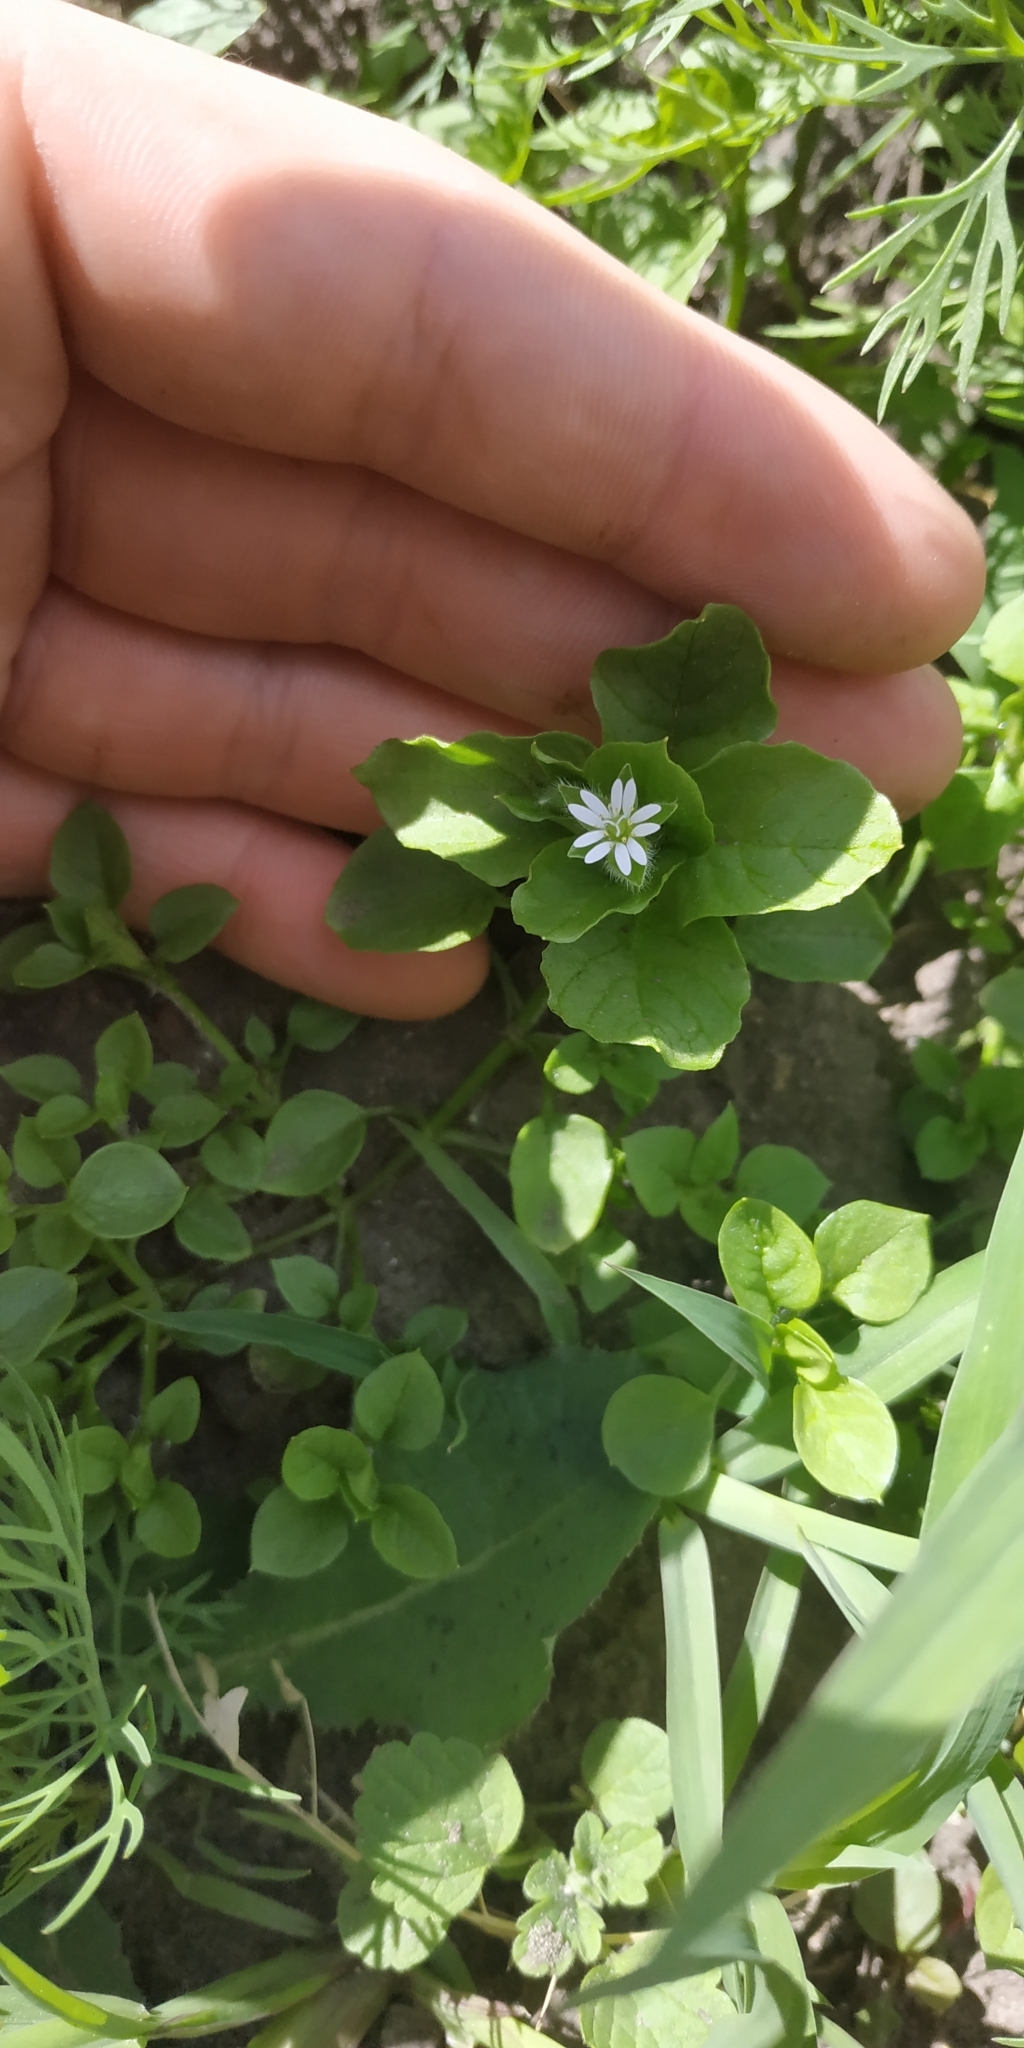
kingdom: Plantae
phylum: Tracheophyta
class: Magnoliopsida
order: Caryophyllales
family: Caryophyllaceae
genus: Stellaria
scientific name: Stellaria media
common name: Common chickweed
